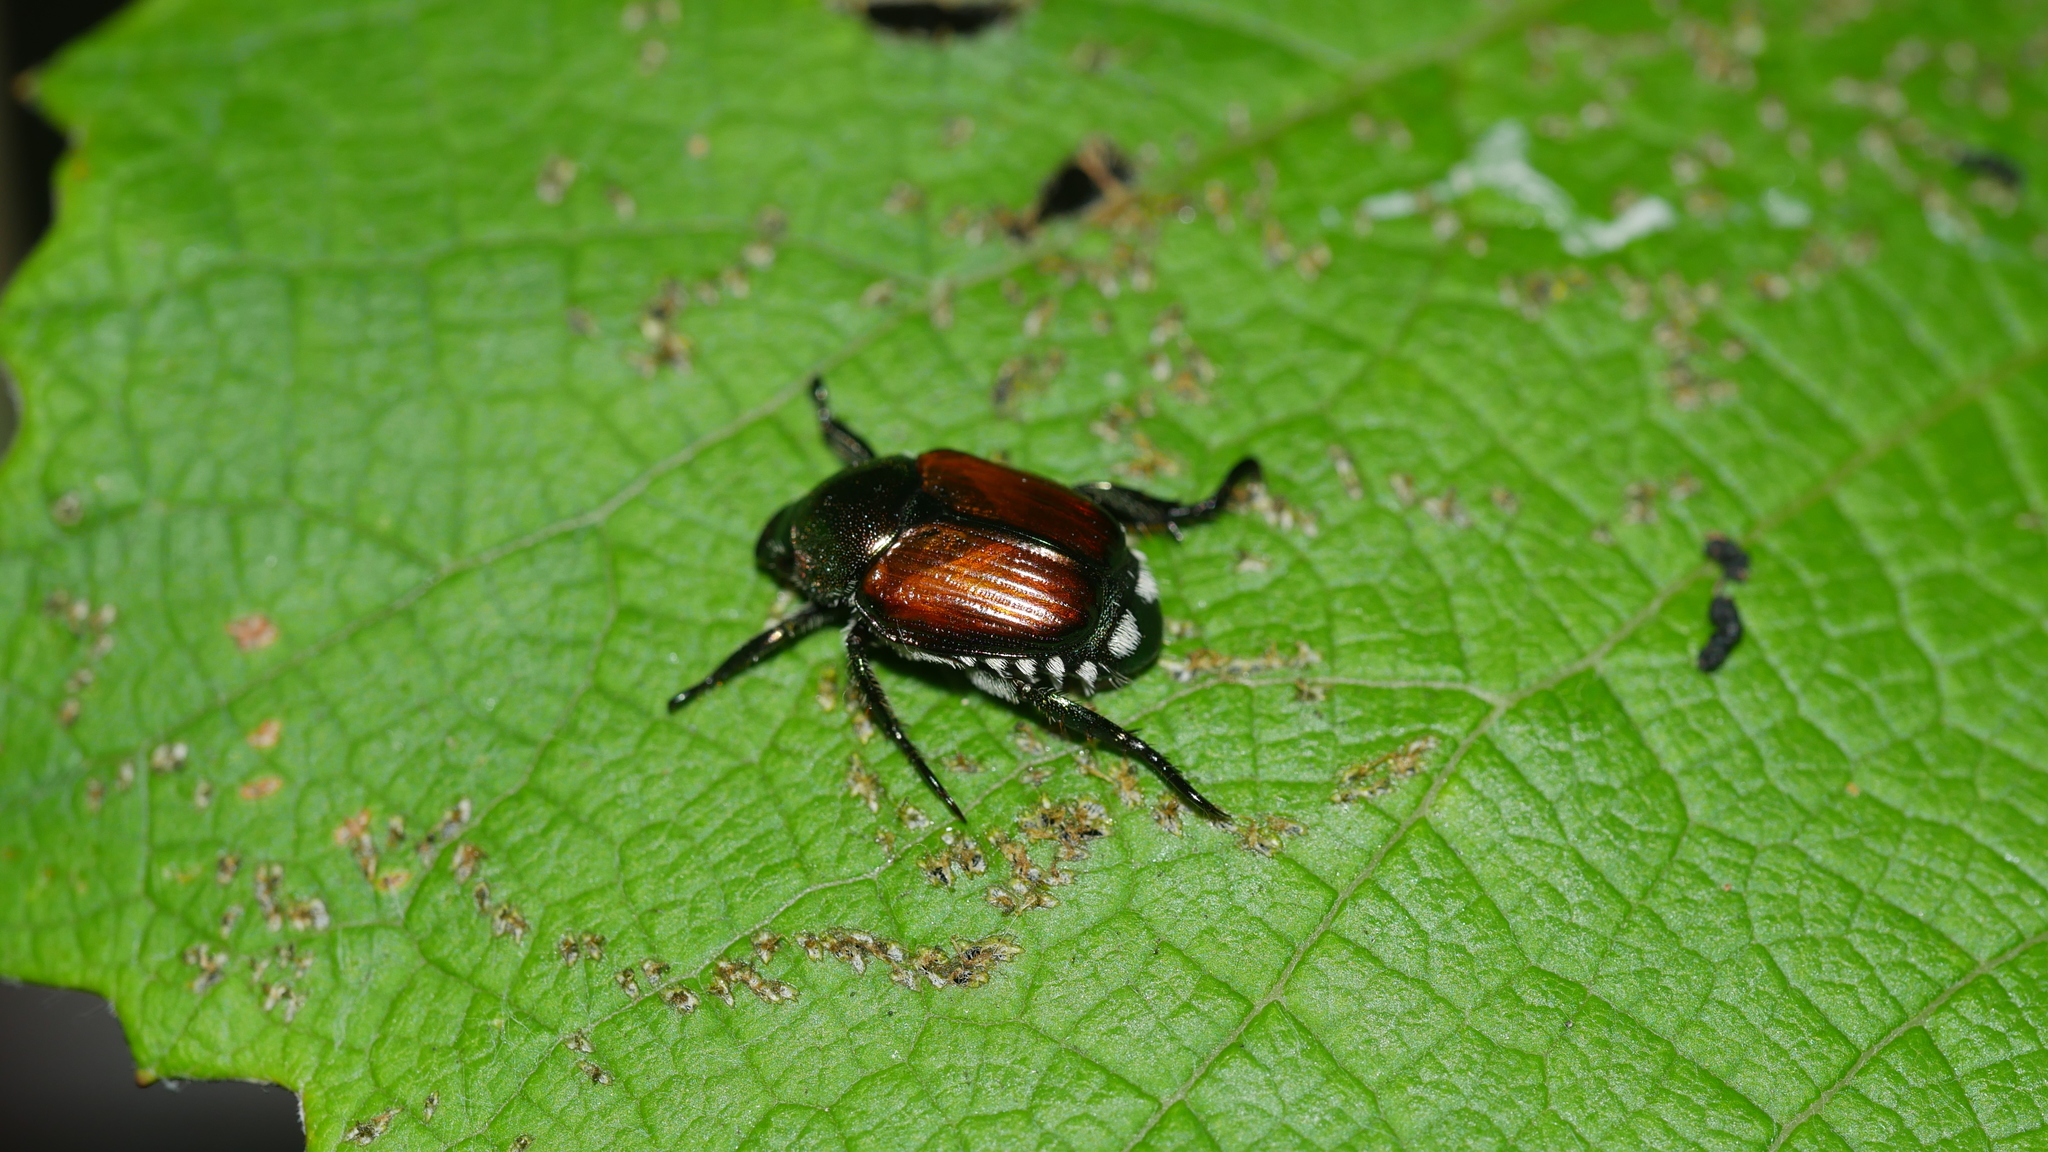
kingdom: Animalia
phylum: Arthropoda
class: Insecta
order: Coleoptera
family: Scarabaeidae
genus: Popillia
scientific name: Popillia japonica
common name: Japanese beetle
